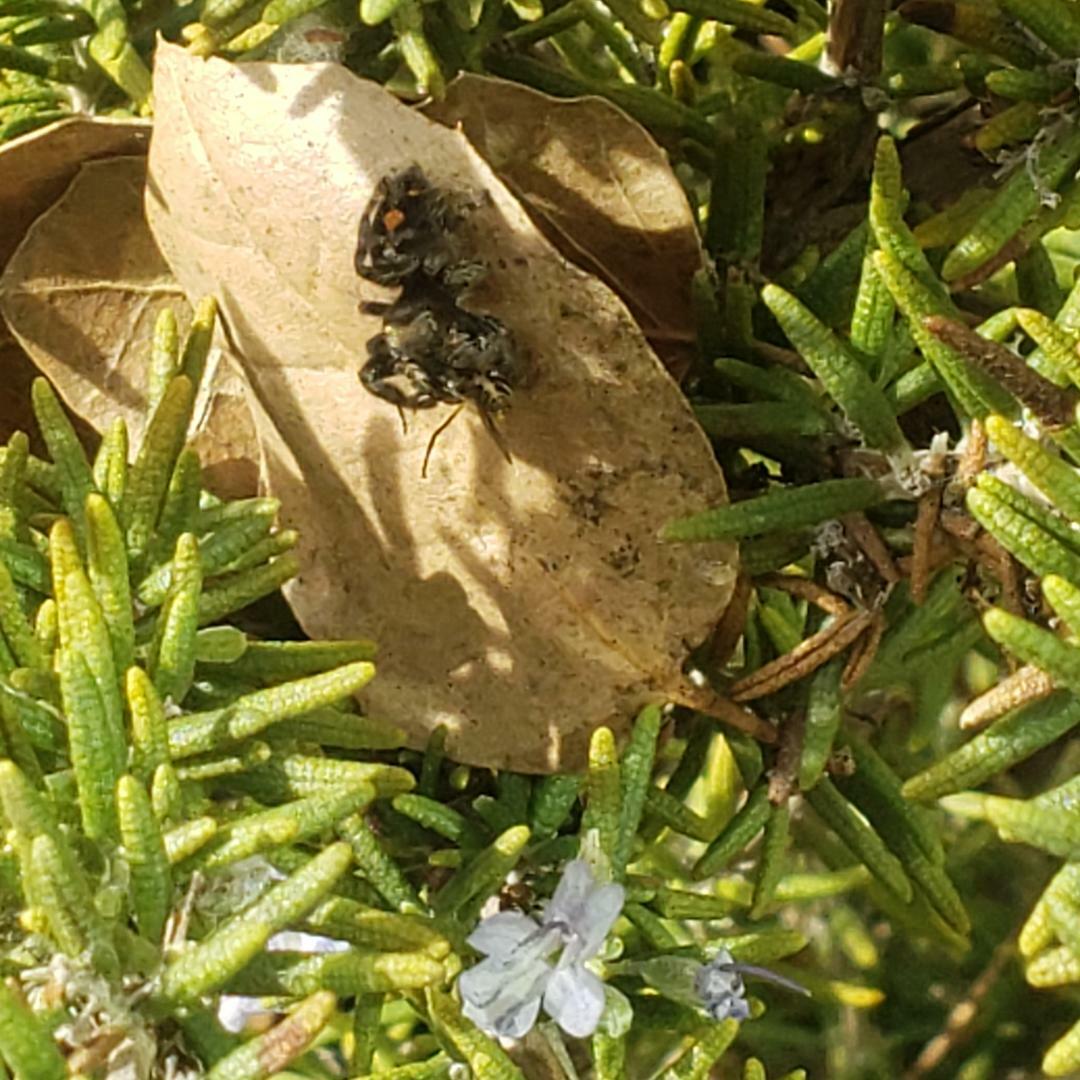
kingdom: Animalia
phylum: Arthropoda
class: Arachnida
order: Araneae
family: Salticidae
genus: Phidippus
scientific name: Phidippus audax
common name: Bold jumper
